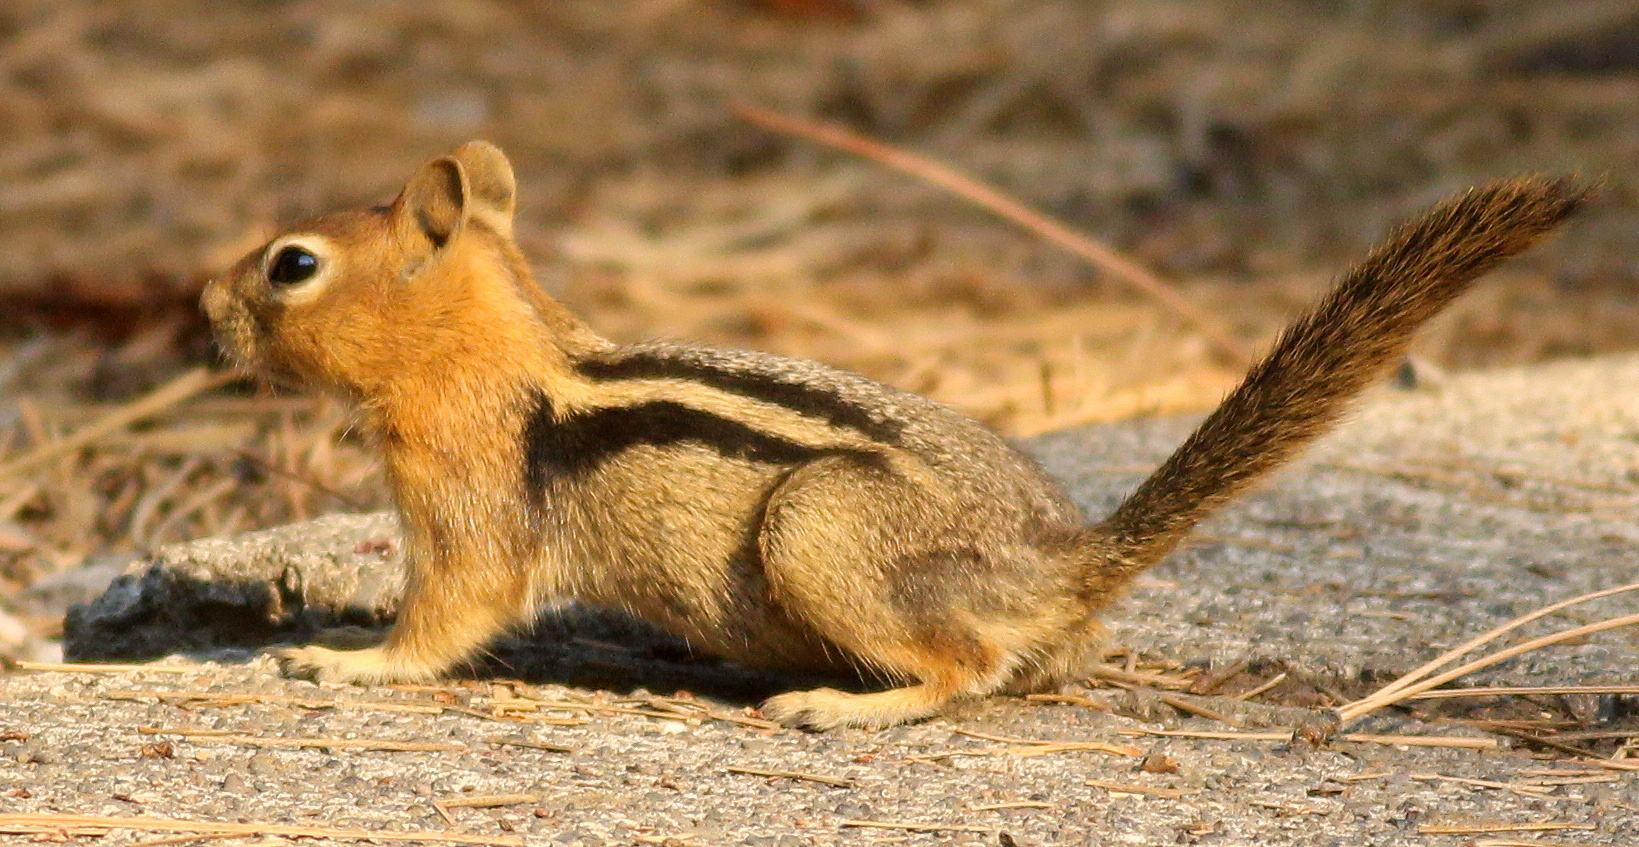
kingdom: Animalia
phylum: Chordata
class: Mammalia
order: Rodentia
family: Sciuridae
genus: Callospermophilus
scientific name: Callospermophilus lateralis
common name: Golden-mantled ground squirrel
